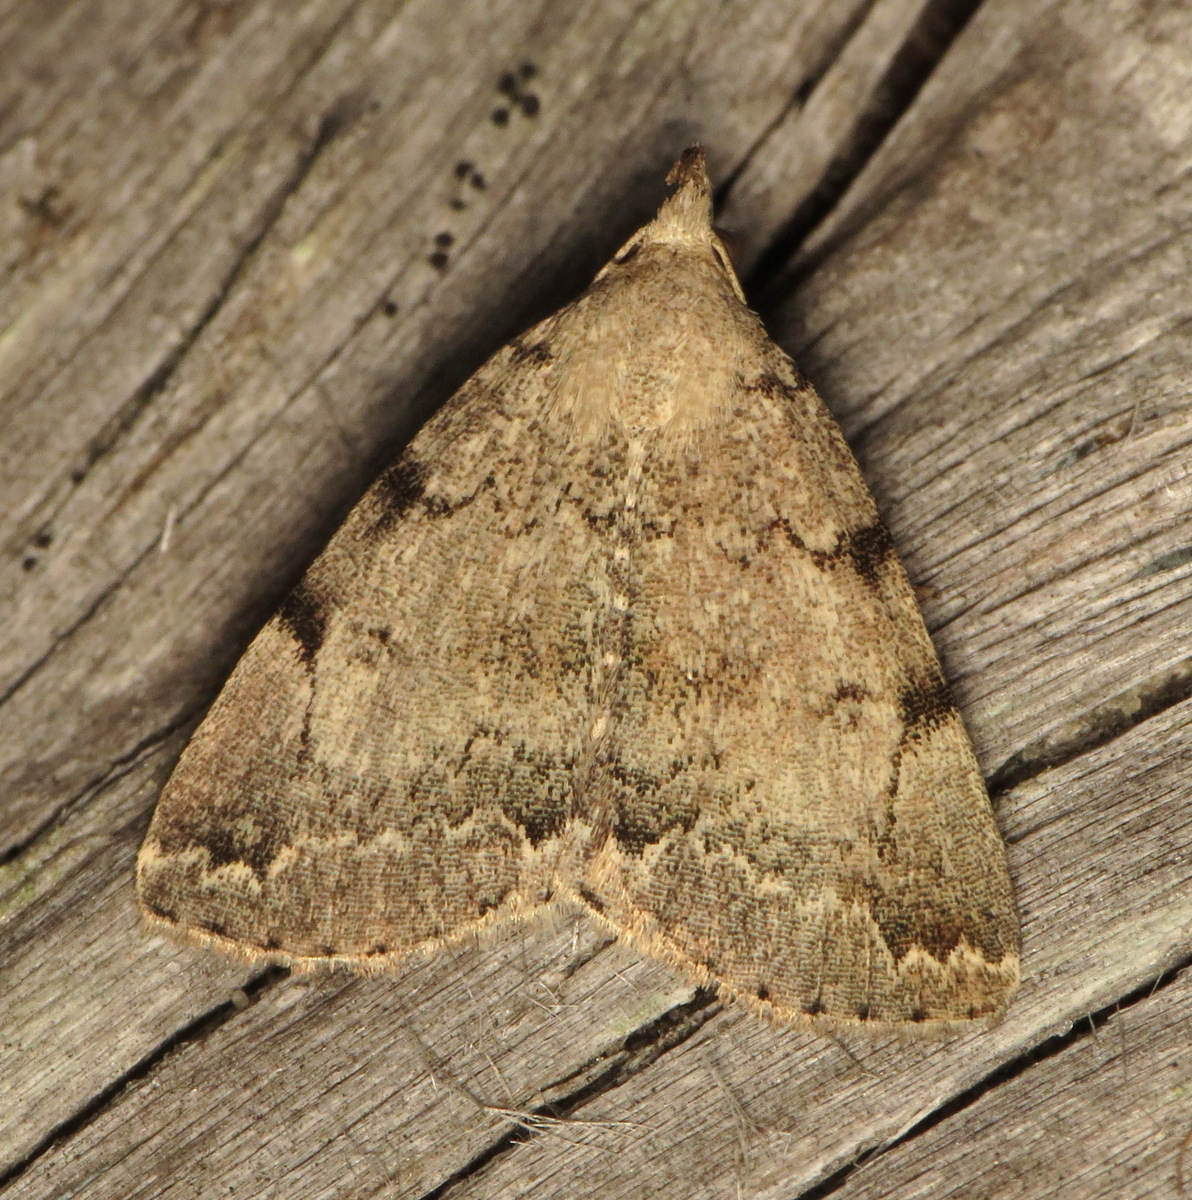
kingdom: Animalia
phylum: Arthropoda
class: Insecta
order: Lepidoptera
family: Erebidae
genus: Zanclognatha
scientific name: Zanclognatha theralis
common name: Flagged fan-foot
